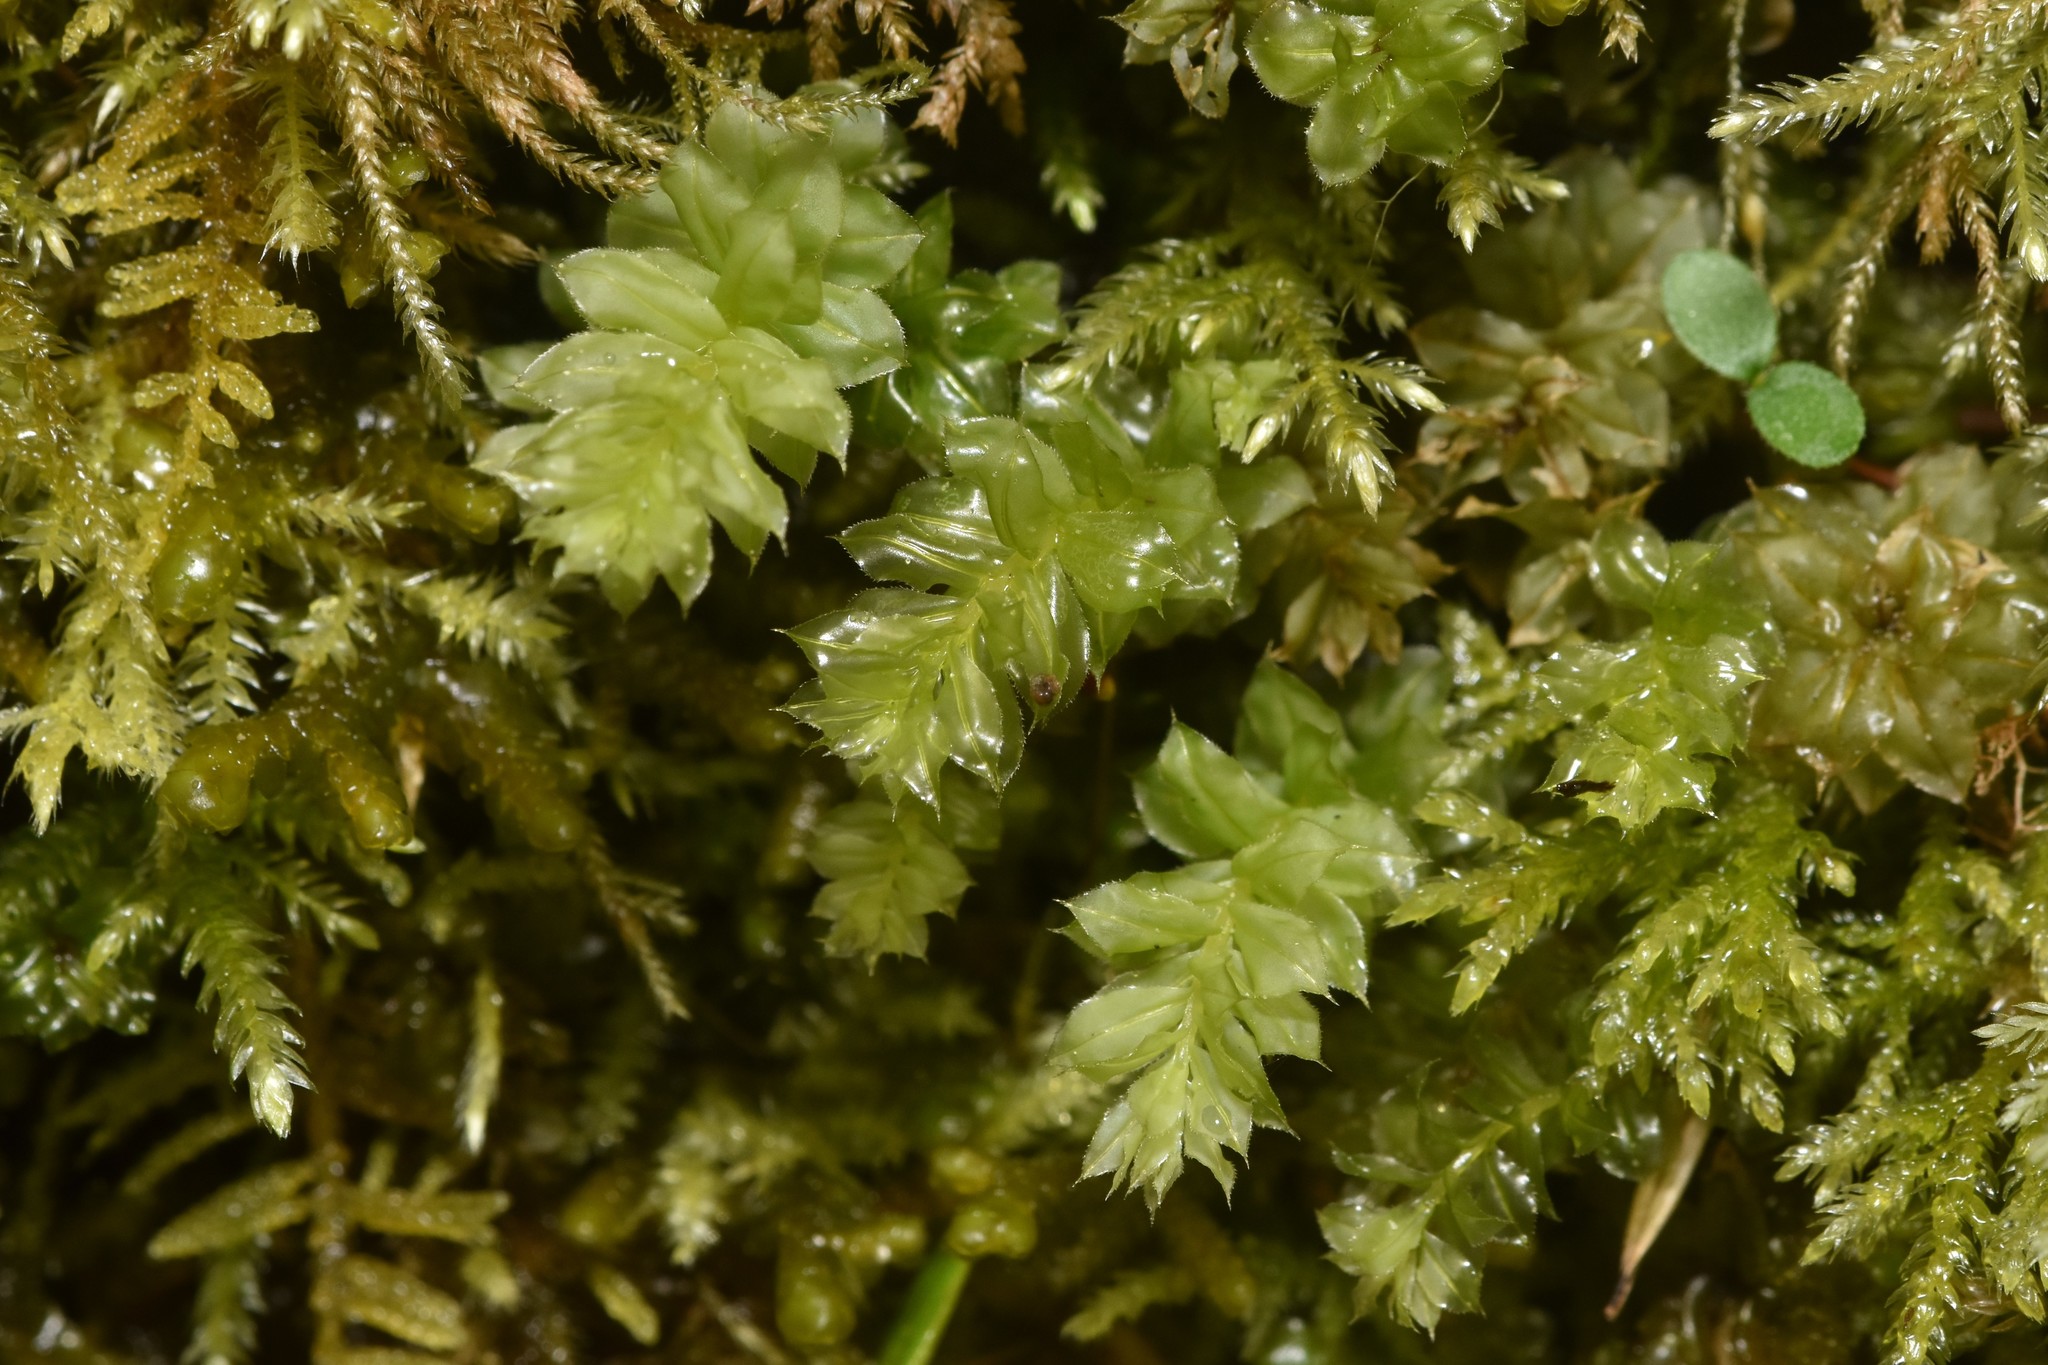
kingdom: Plantae
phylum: Bryophyta
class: Bryopsida
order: Bryales
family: Mniaceae
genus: Plagiomnium
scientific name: Plagiomnium venustum
